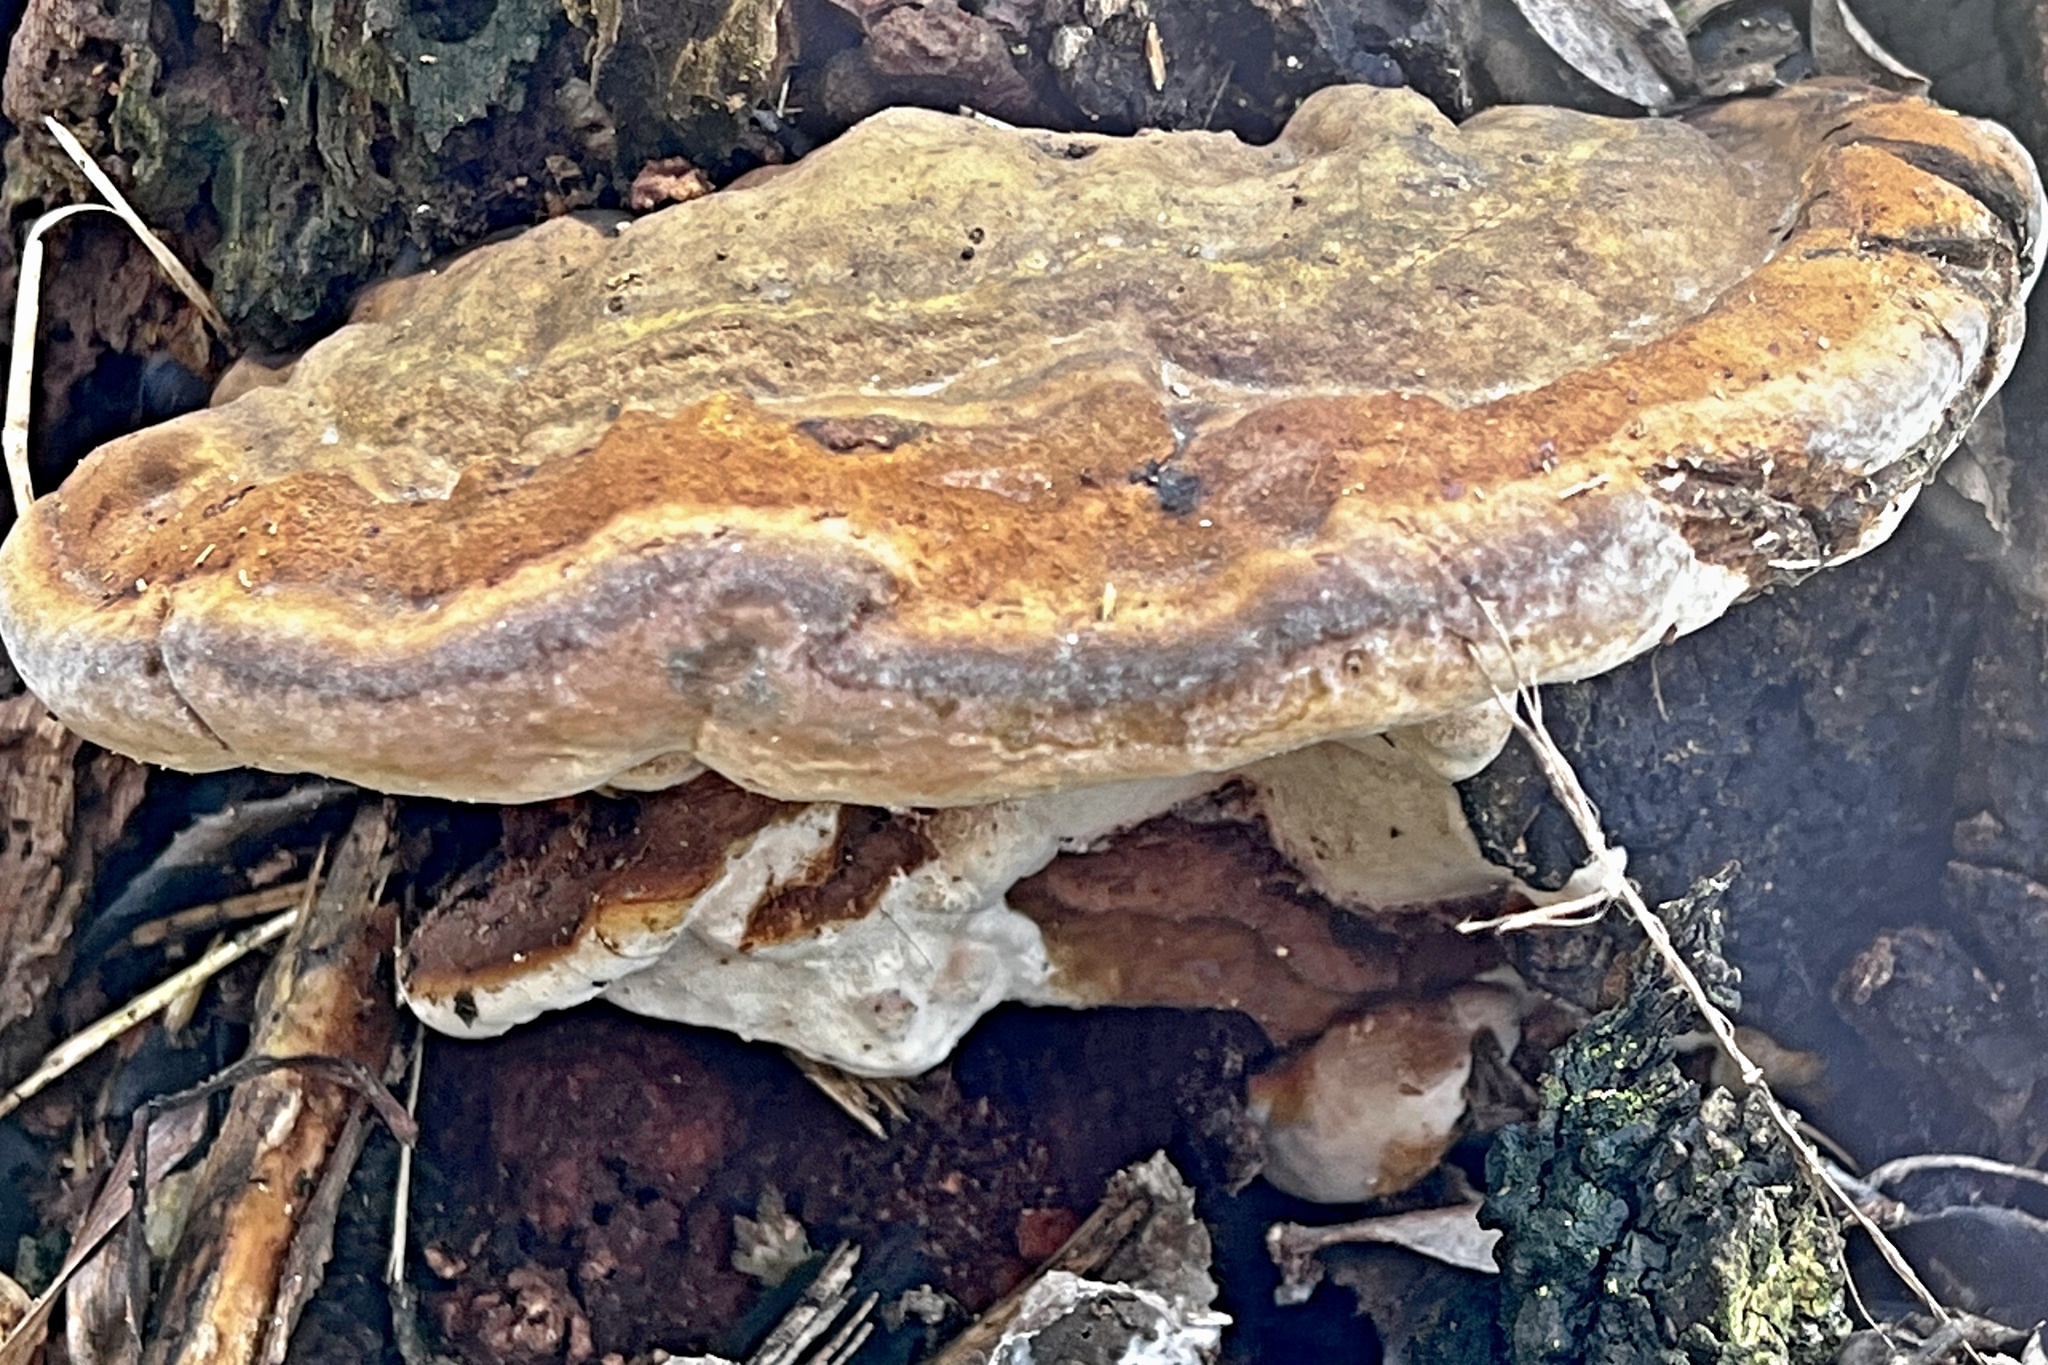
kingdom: Fungi
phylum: Basidiomycota
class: Agaricomycetes
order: Polyporales
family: Fomitopsidaceae
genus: Fomitopsis
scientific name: Fomitopsis pinicola
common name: Red-belted bracket
